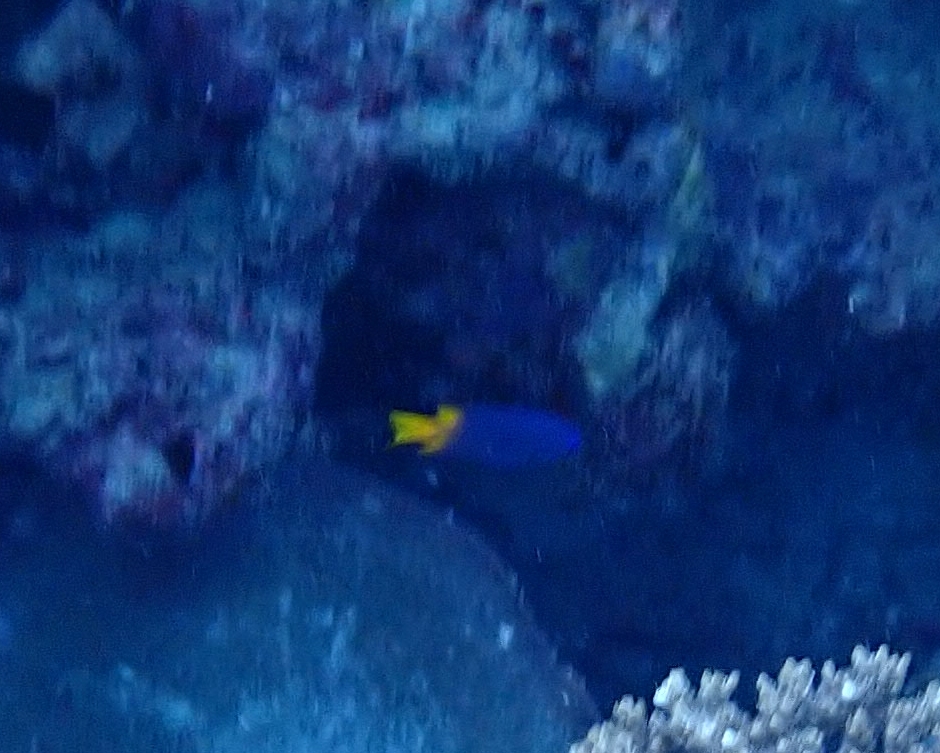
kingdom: Animalia
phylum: Chordata
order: Perciformes
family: Pomacentridae
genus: Pomacentrus
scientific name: Pomacentrus
